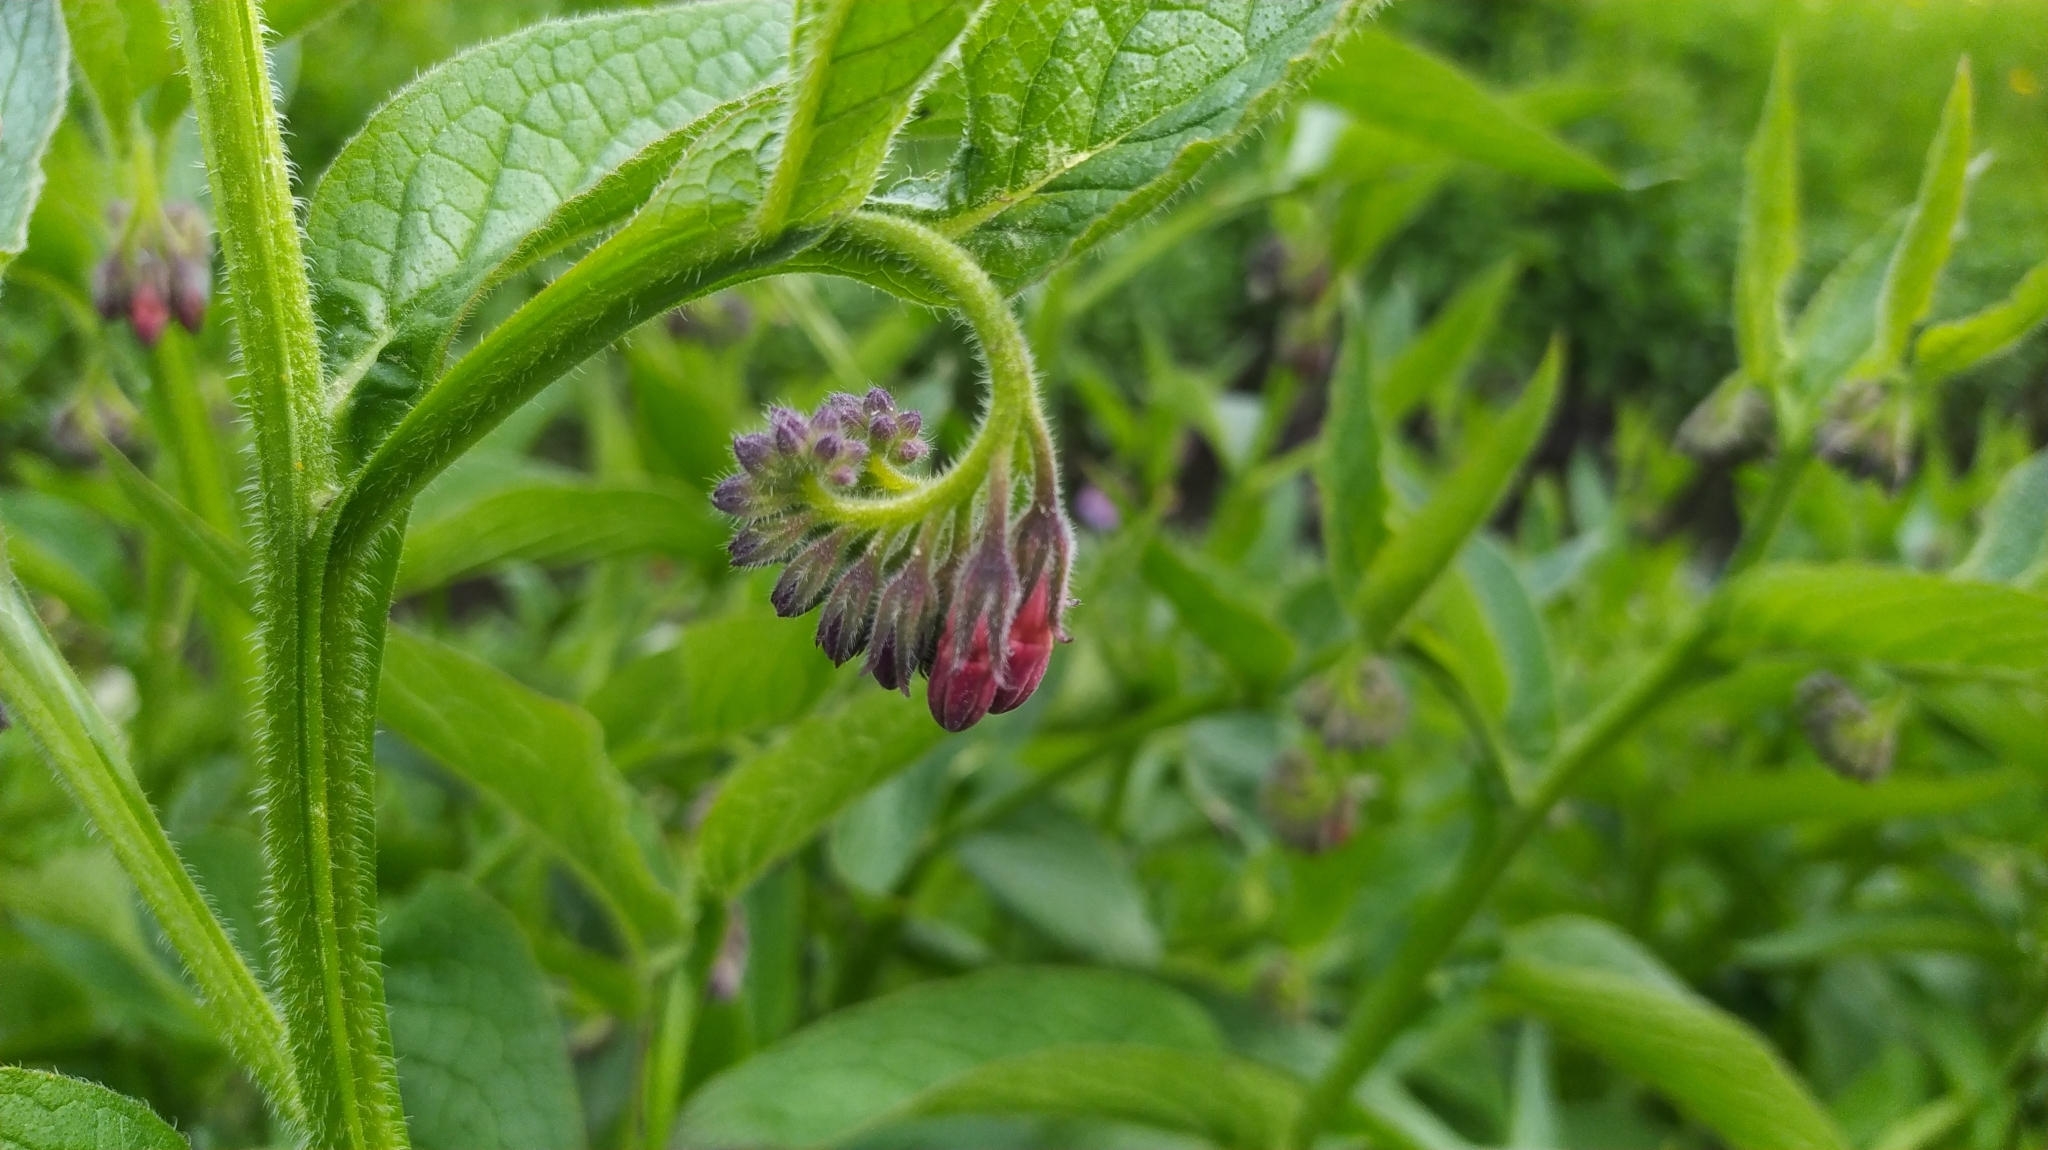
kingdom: Plantae
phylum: Tracheophyta
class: Magnoliopsida
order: Boraginales
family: Boraginaceae
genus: Symphytum
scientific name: Symphytum officinale
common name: Common comfrey
